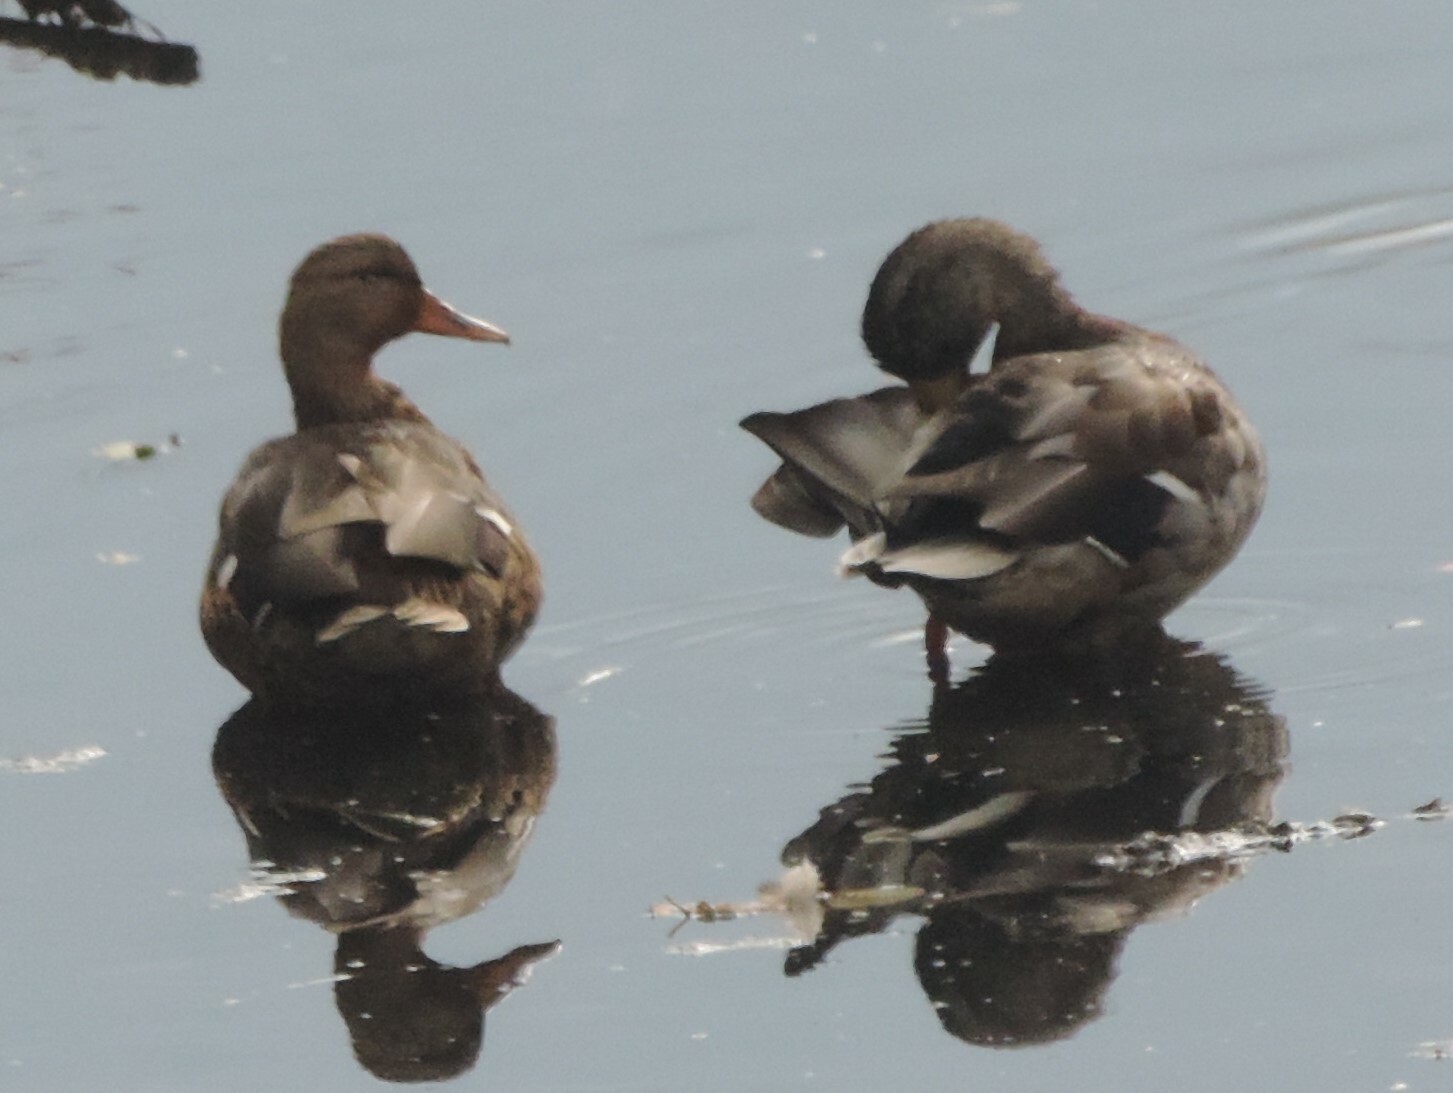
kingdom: Animalia
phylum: Chordata
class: Aves
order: Anseriformes
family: Anatidae
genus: Anas
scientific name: Anas platyrhynchos
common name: Mallard
